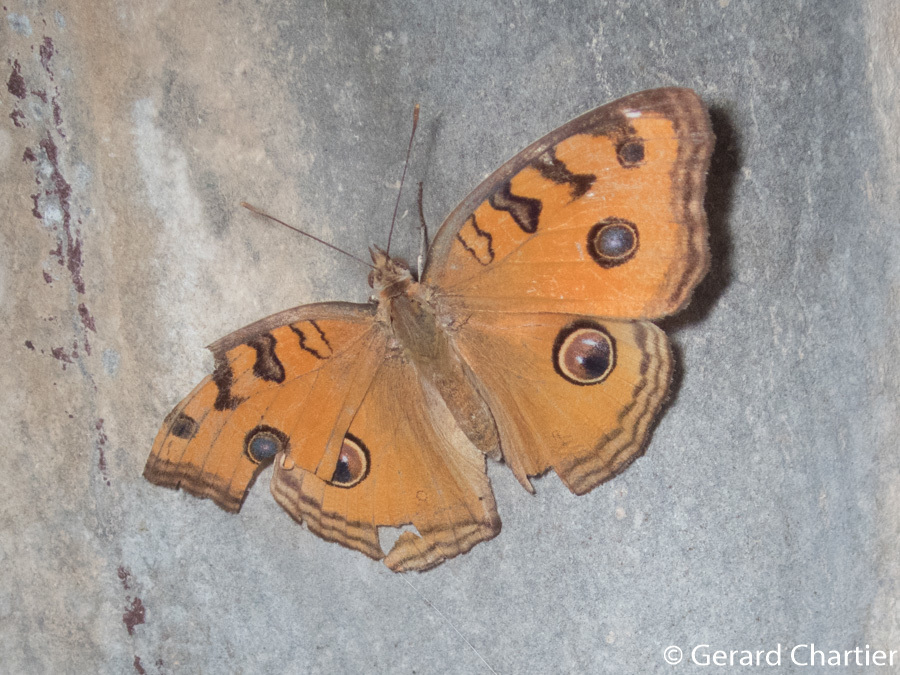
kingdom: Animalia
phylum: Arthropoda
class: Insecta
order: Lepidoptera
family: Nymphalidae
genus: Junonia
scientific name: Junonia almana
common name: Peacock pansy
